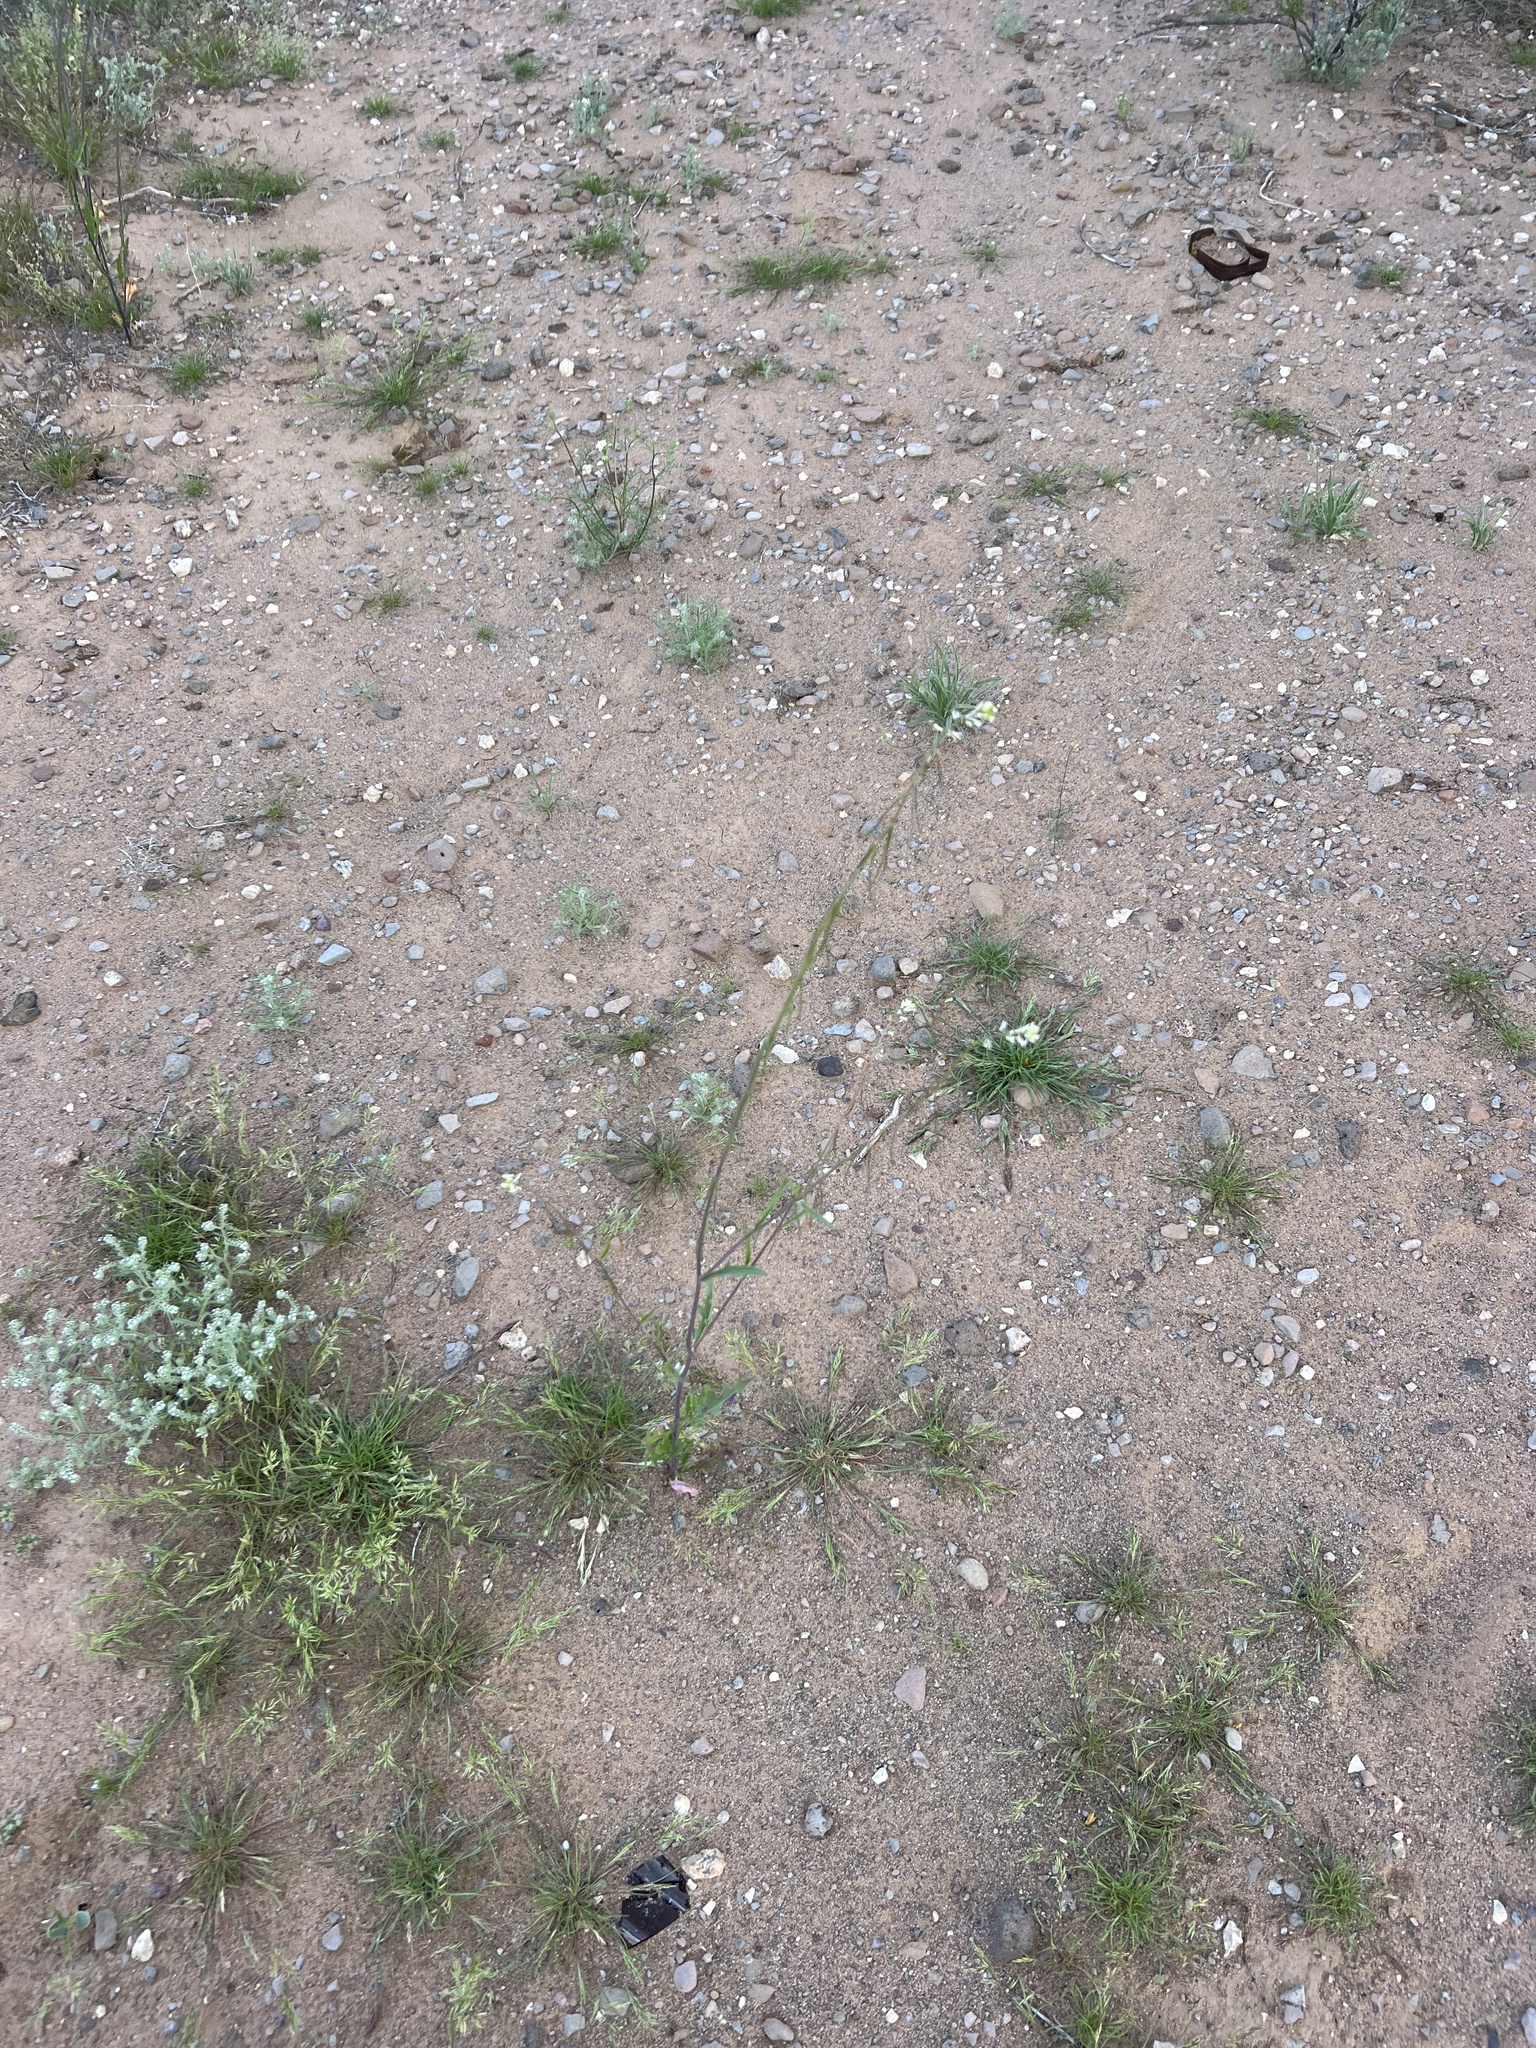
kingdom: Plantae
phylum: Tracheophyta
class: Magnoliopsida
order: Brassicales
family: Brassicaceae
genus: Sisymbrium
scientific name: Sisymbrium irio
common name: London rocket
